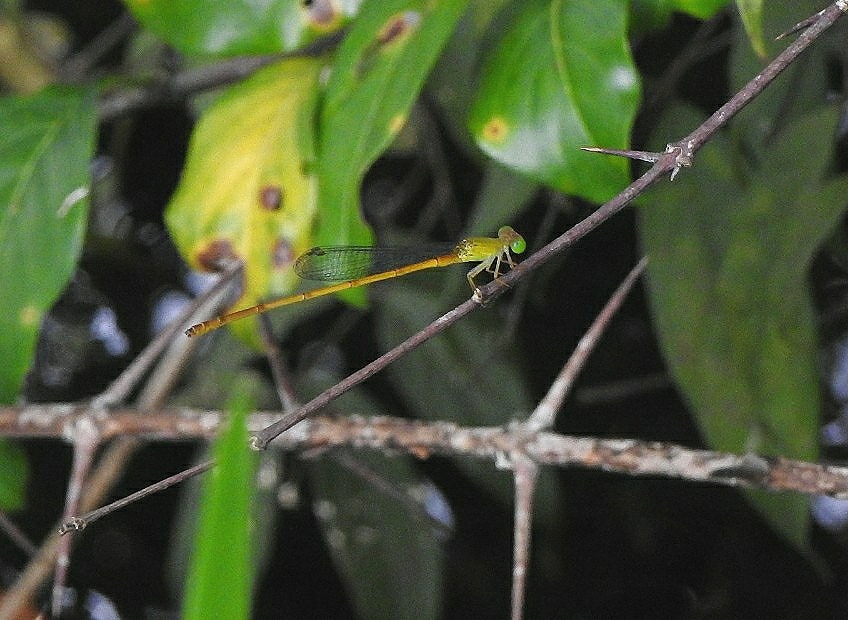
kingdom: Animalia
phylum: Arthropoda
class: Insecta
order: Odonata
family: Coenagrionidae
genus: Ceriagrion
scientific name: Ceriagrion chromothorax
